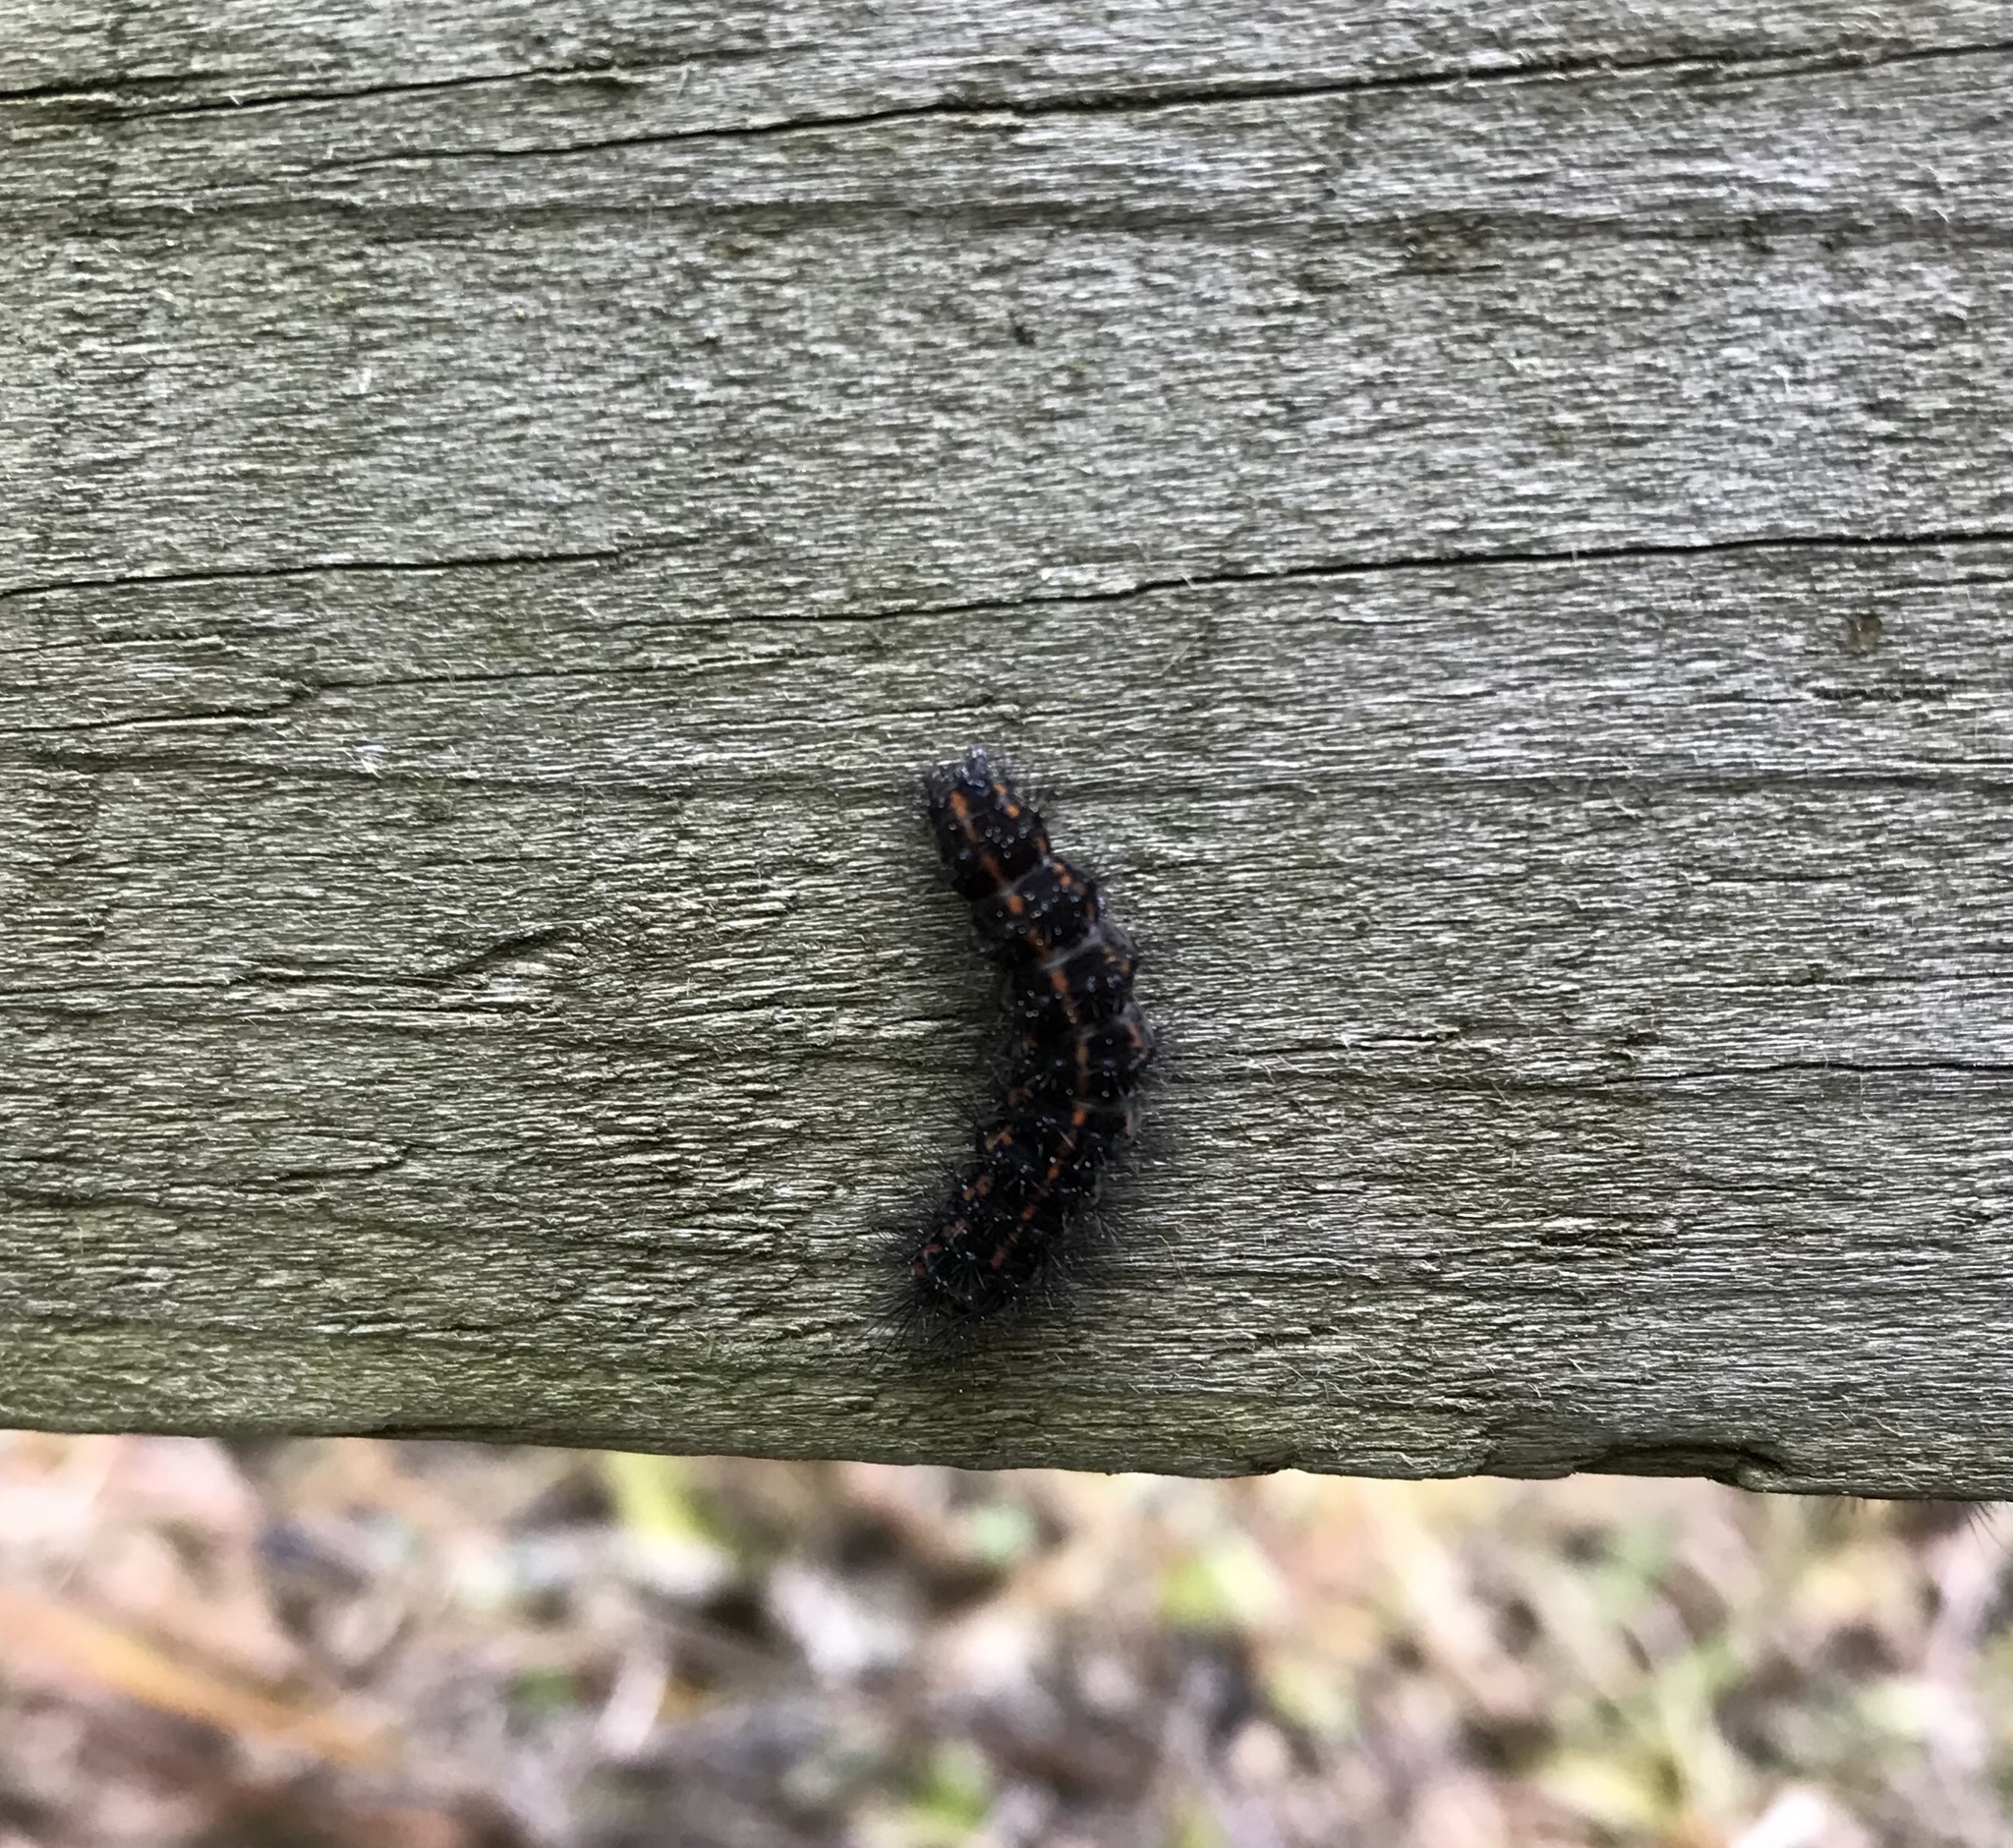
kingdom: Animalia
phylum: Arthropoda
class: Insecta
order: Lepidoptera
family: Erebidae
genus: Nyctemera
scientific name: Nyctemera annulatum
